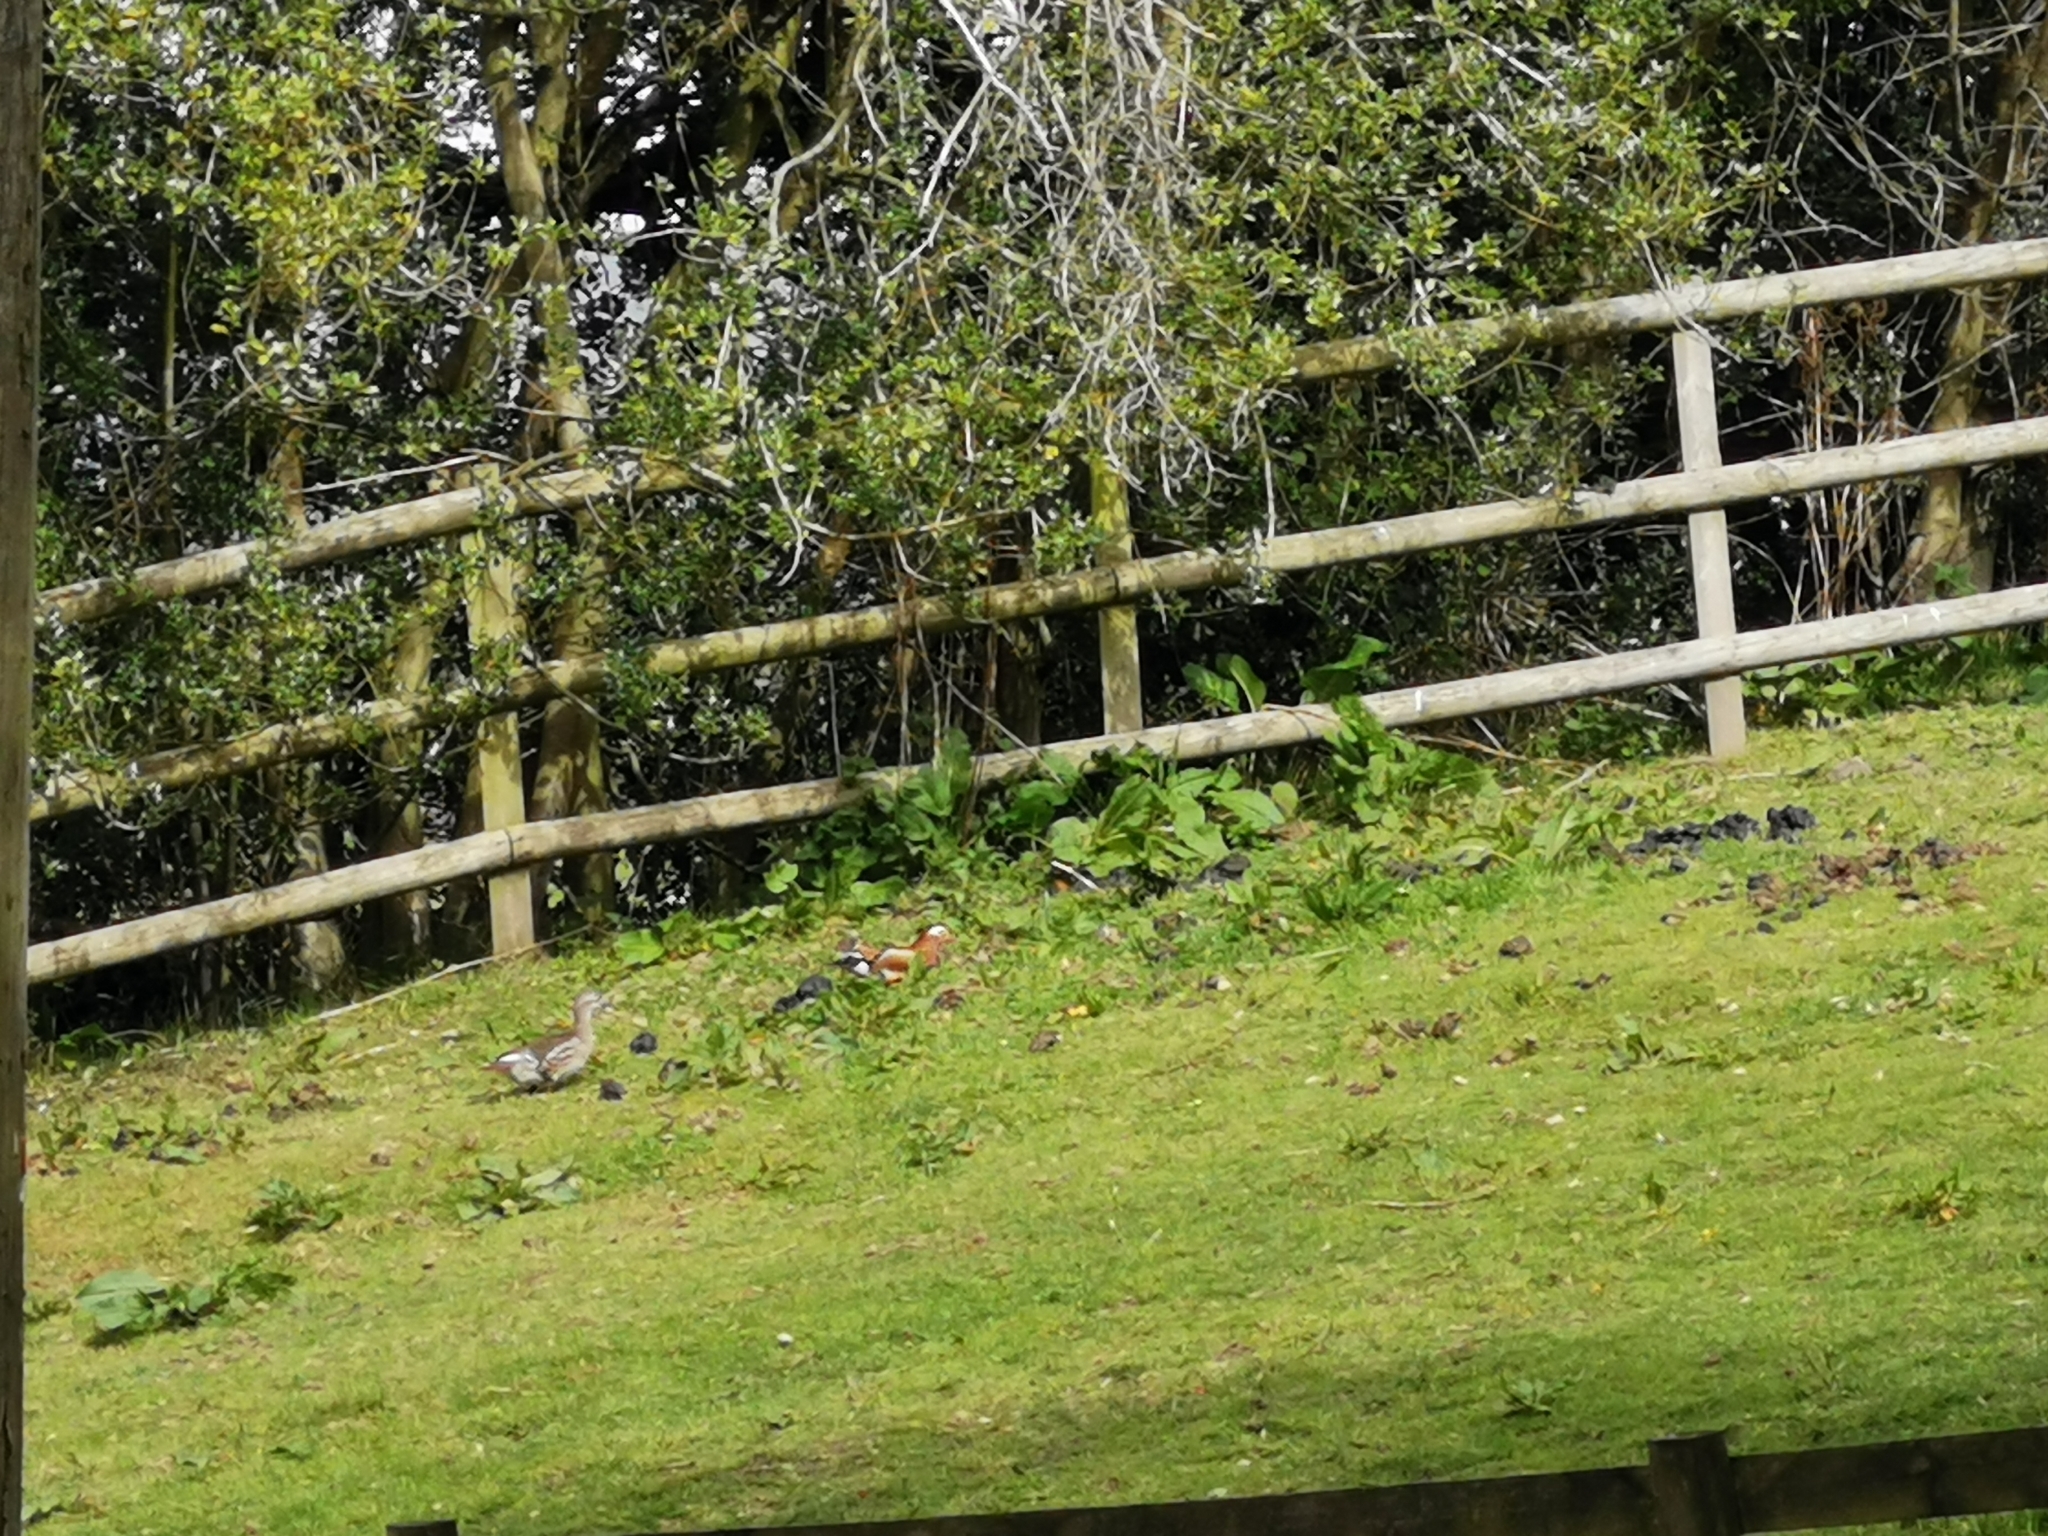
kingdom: Animalia
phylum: Chordata
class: Aves
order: Anseriformes
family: Anatidae
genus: Aix
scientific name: Aix galericulata
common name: Mandarin duck
